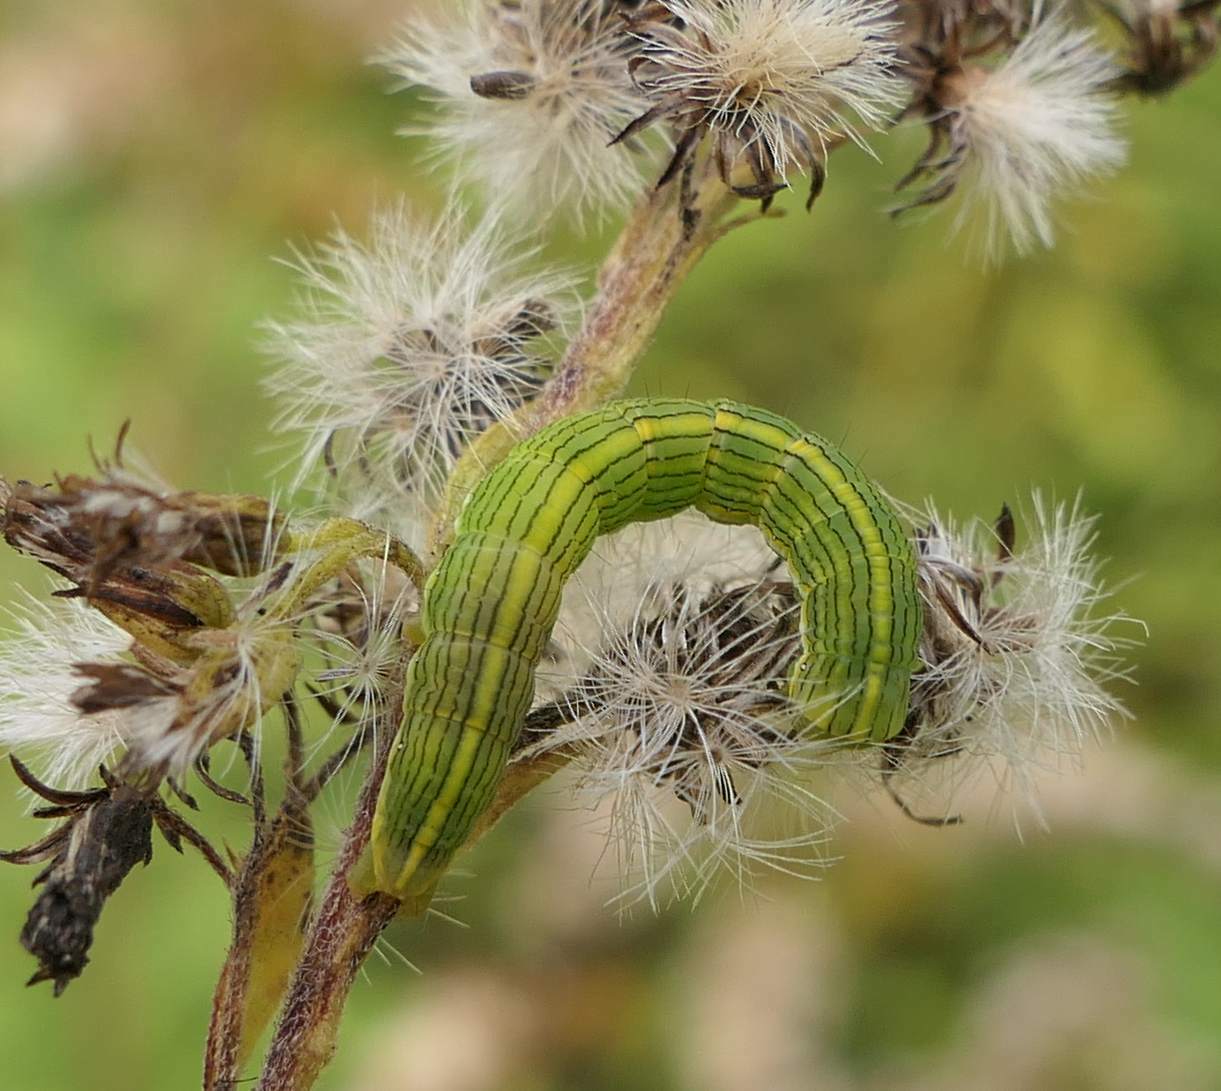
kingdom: Animalia
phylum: Arthropoda
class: Insecta
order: Lepidoptera
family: Noctuidae
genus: Cucullia
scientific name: Cucullia asteroides
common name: Asteroid moth
